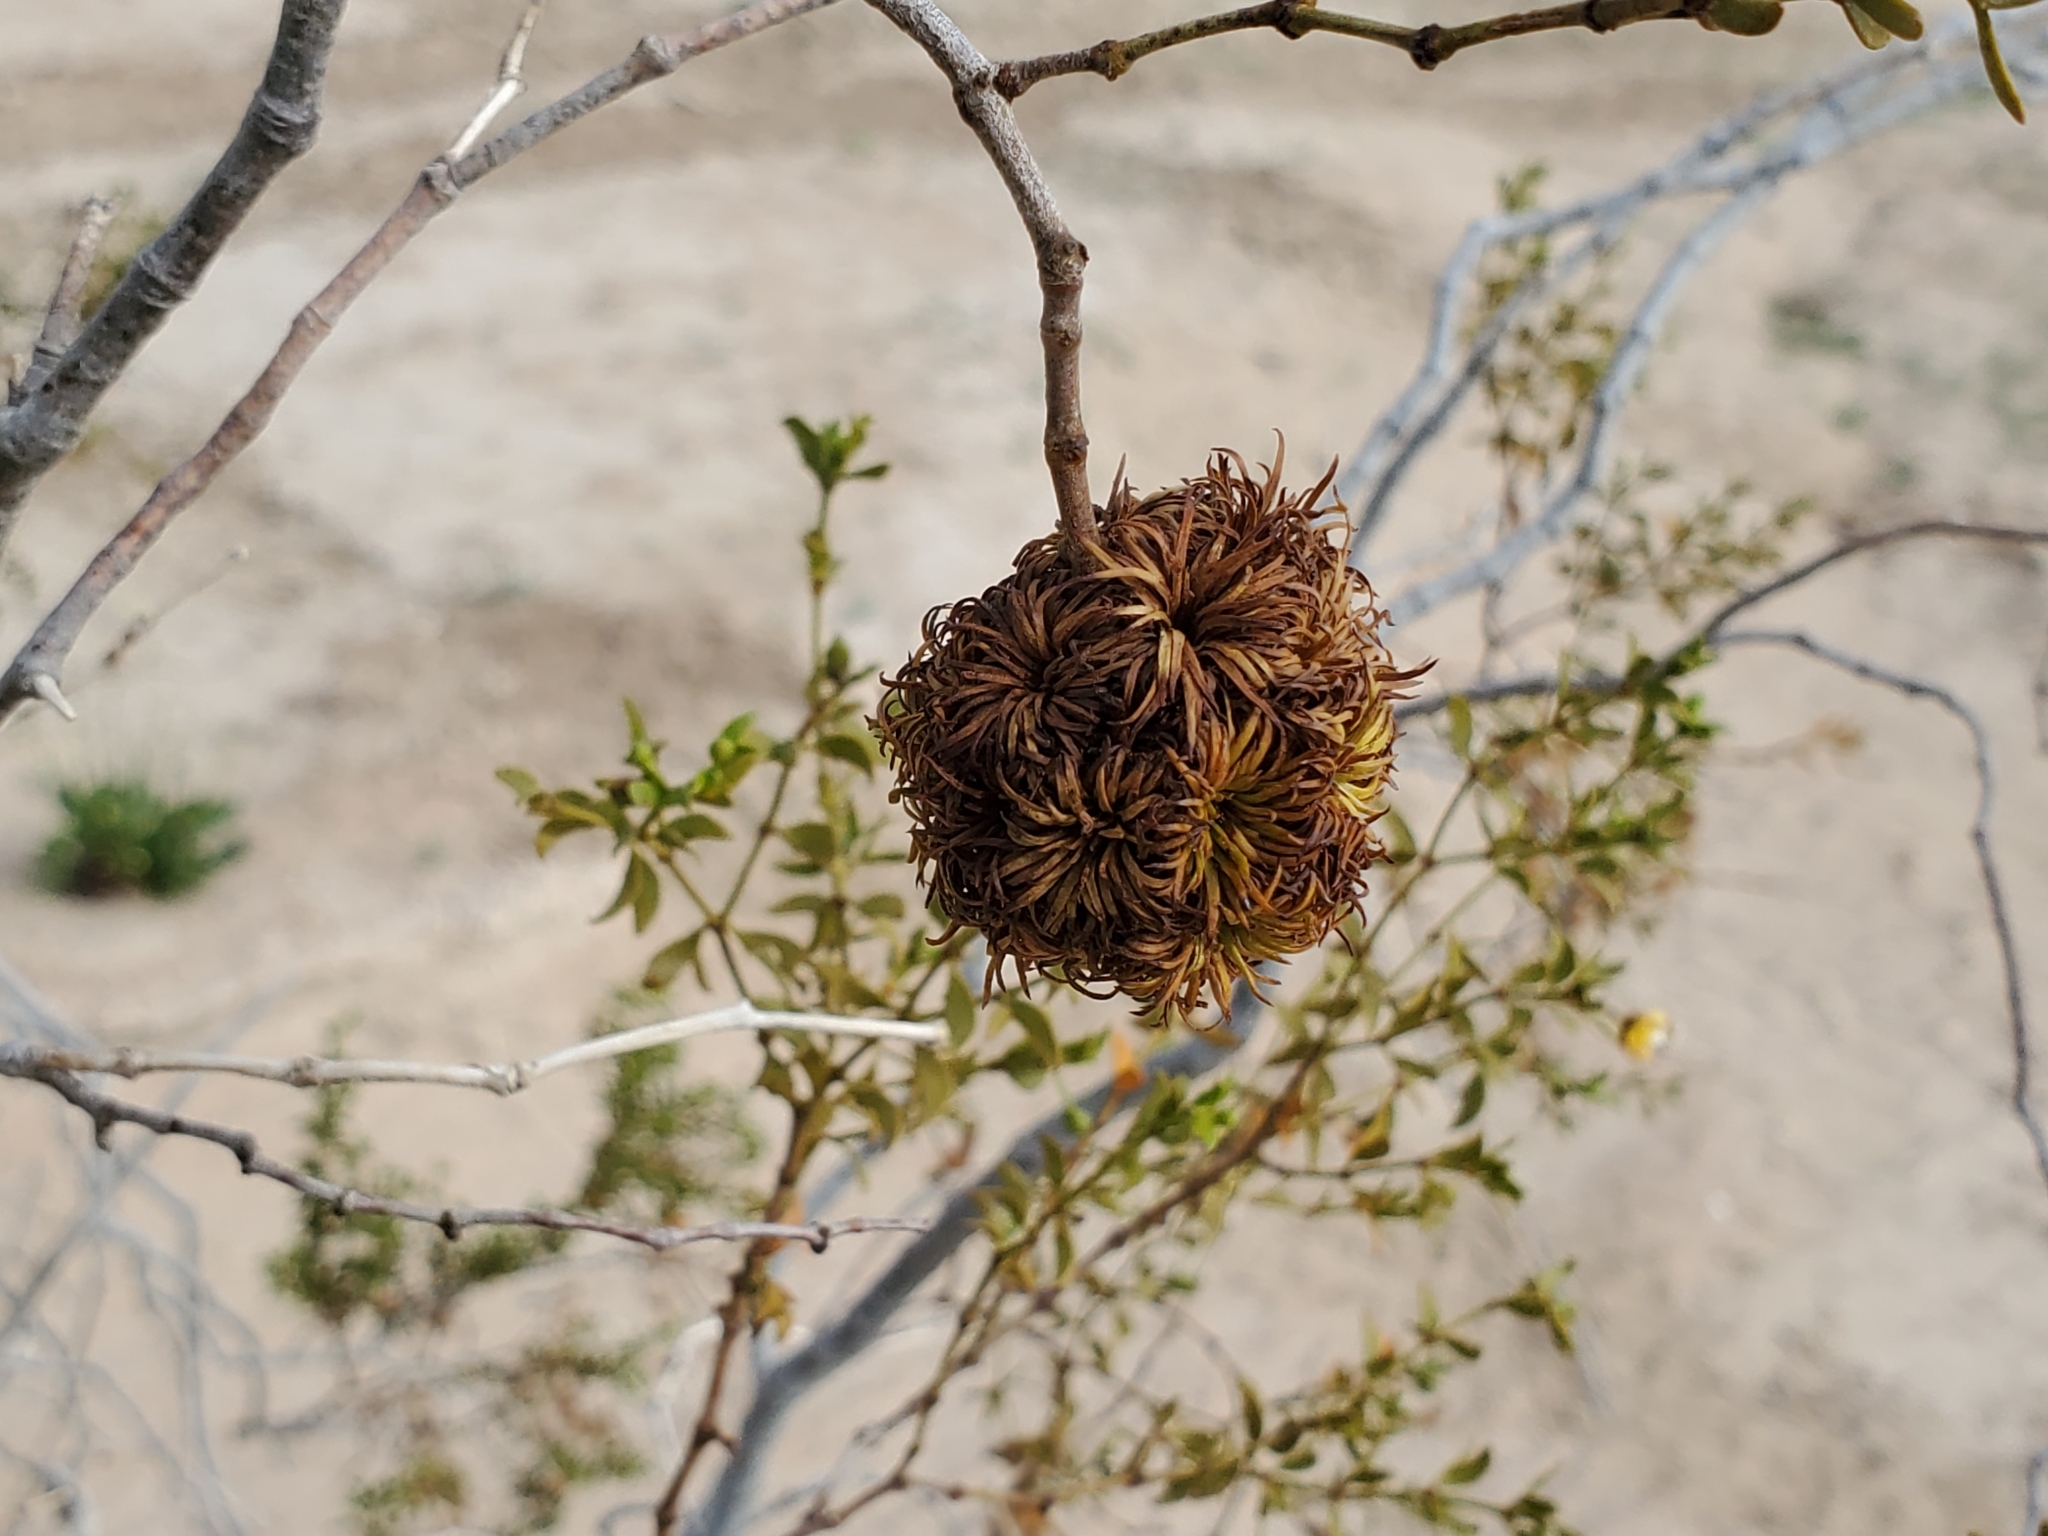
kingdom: Animalia
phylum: Arthropoda
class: Insecta
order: Diptera
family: Cecidomyiidae
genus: Asphondylia
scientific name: Asphondylia auripila
